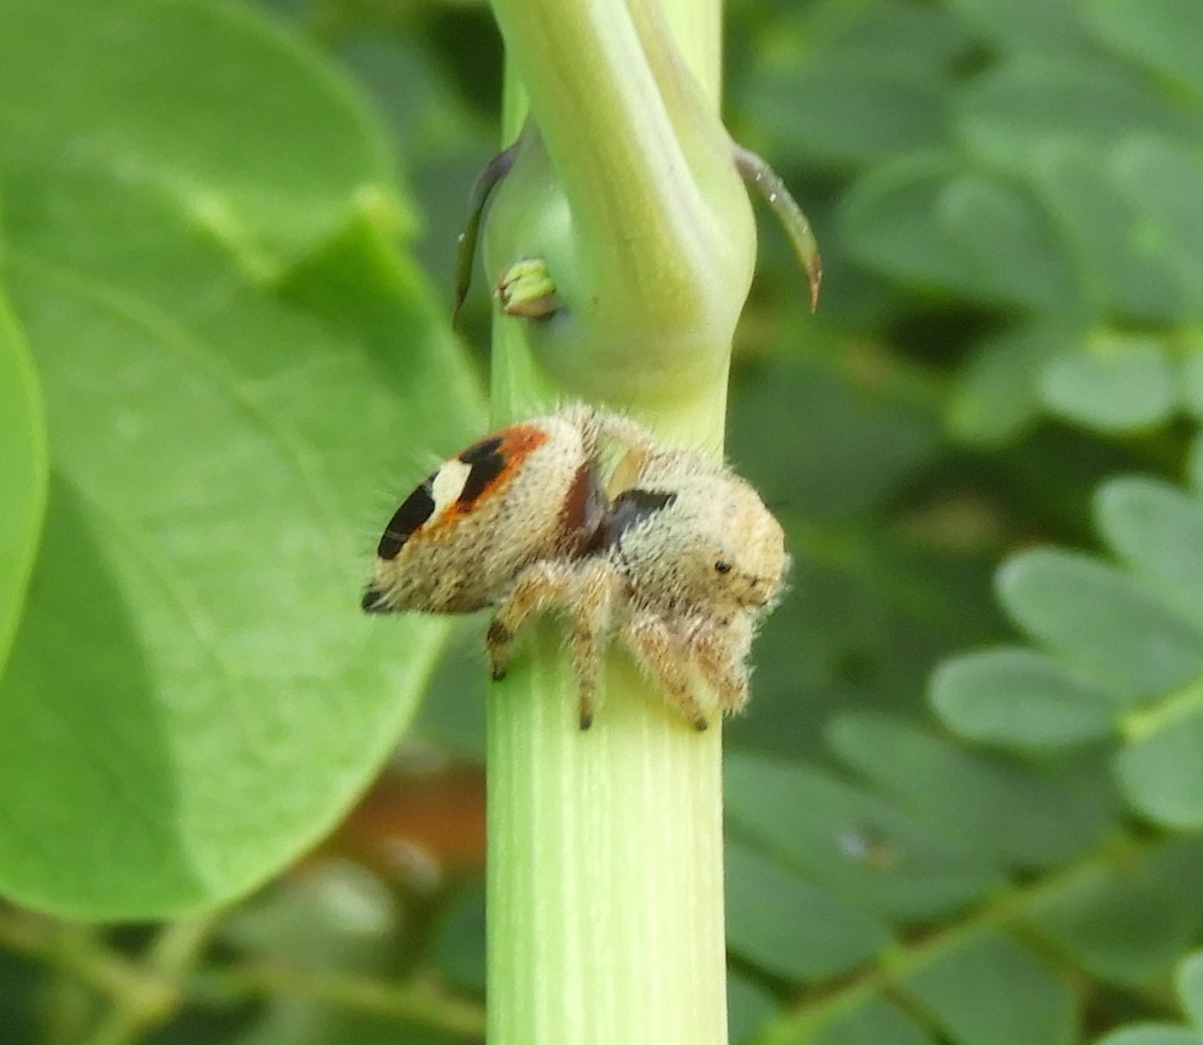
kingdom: Animalia
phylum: Arthropoda
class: Arachnida
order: Araneae
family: Salticidae
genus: Phidippus
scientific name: Phidippus pacosauritus
